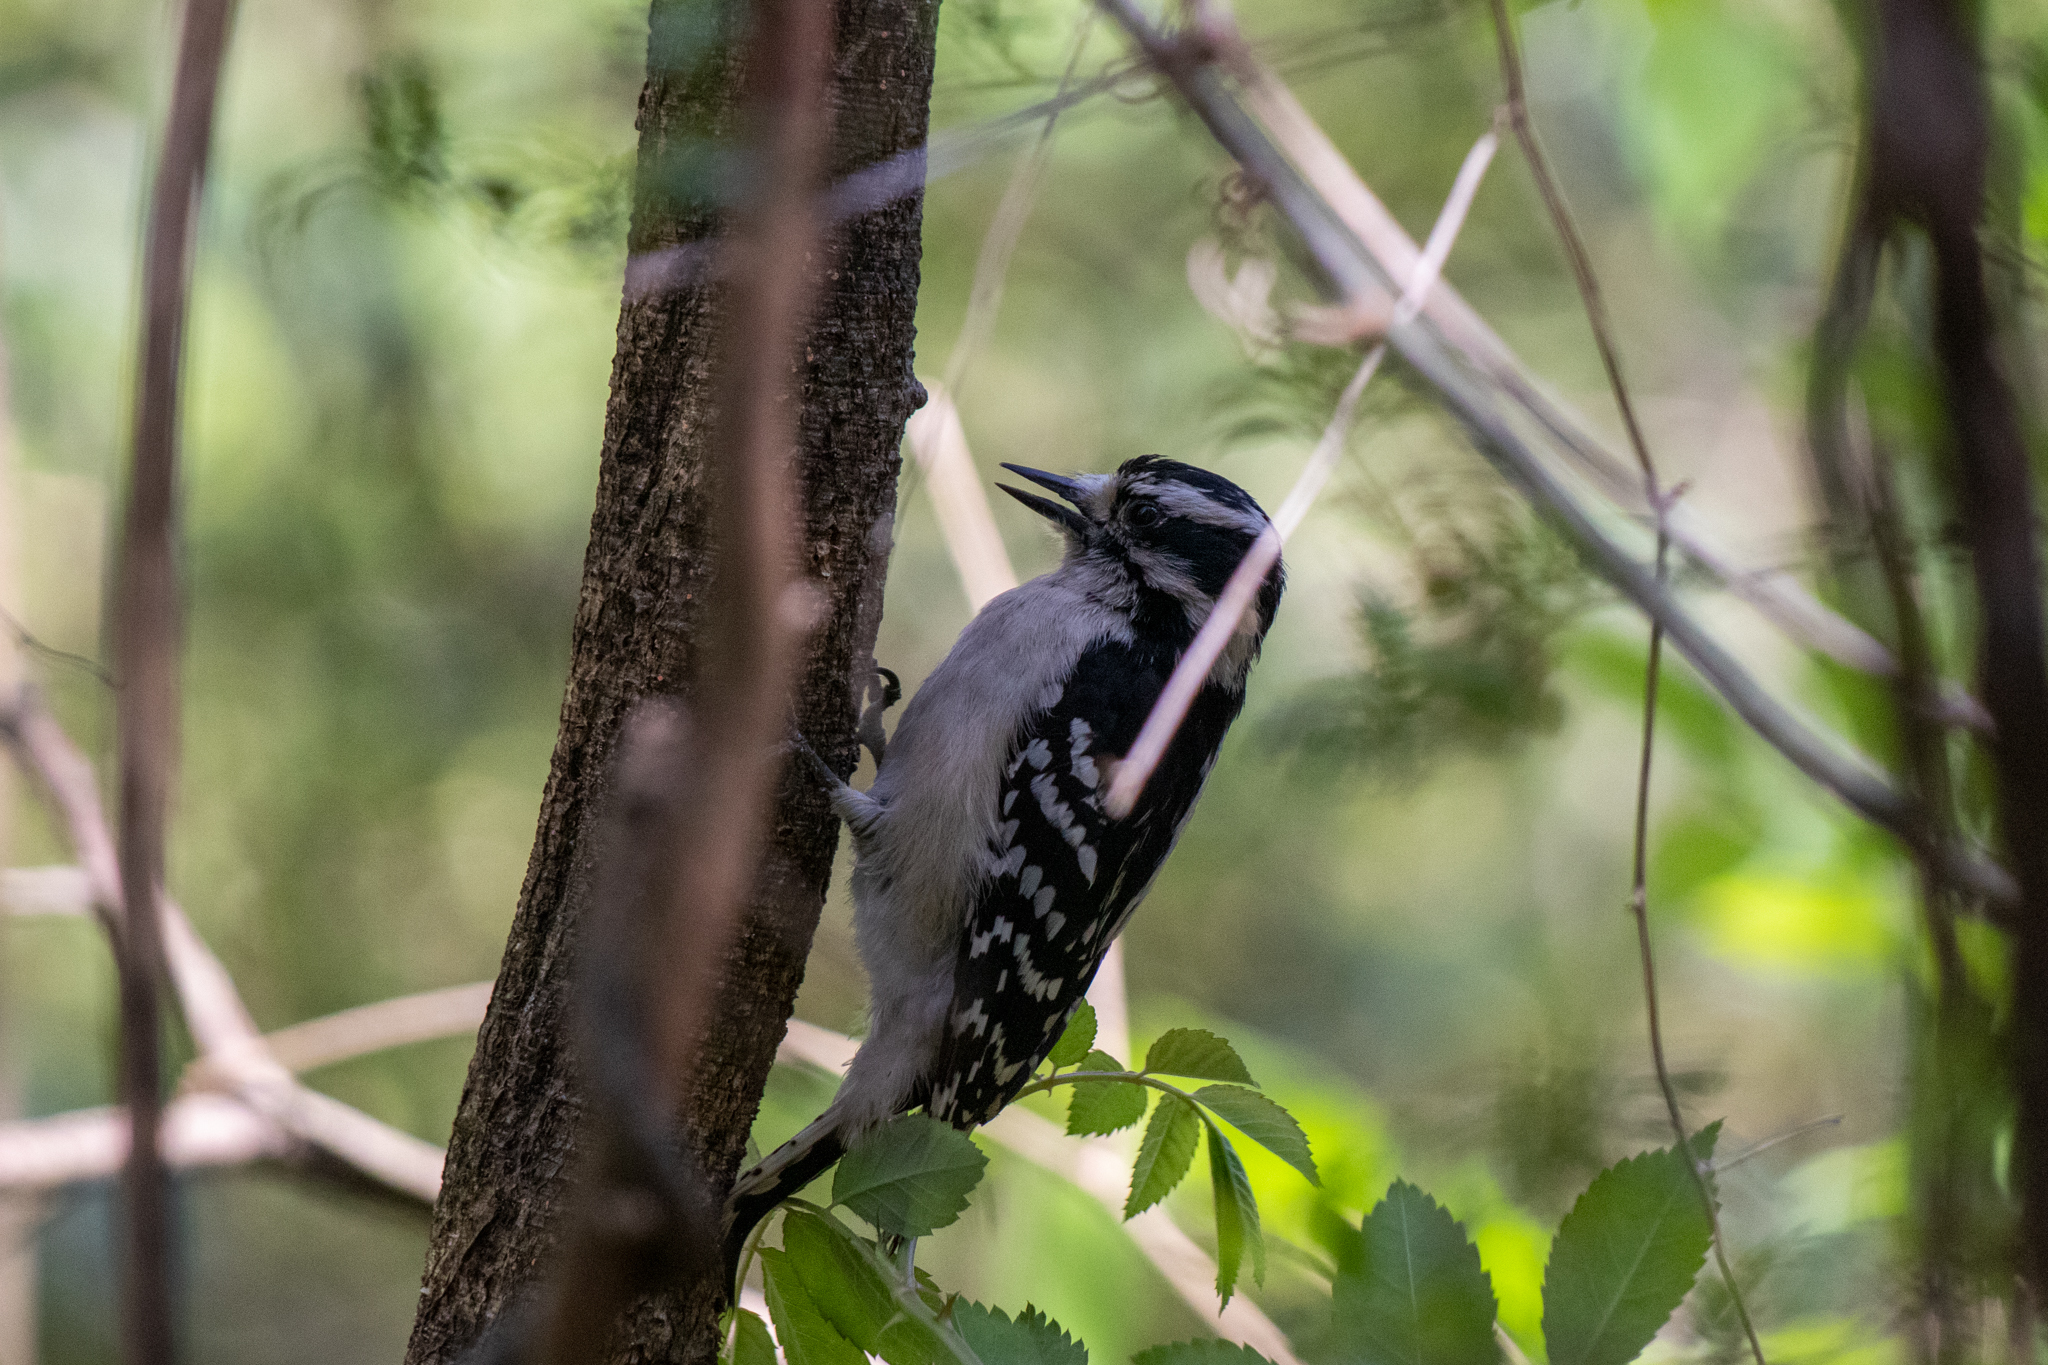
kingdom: Animalia
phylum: Chordata
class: Aves
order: Piciformes
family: Picidae
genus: Dryobates
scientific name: Dryobates pubescens
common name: Downy woodpecker
